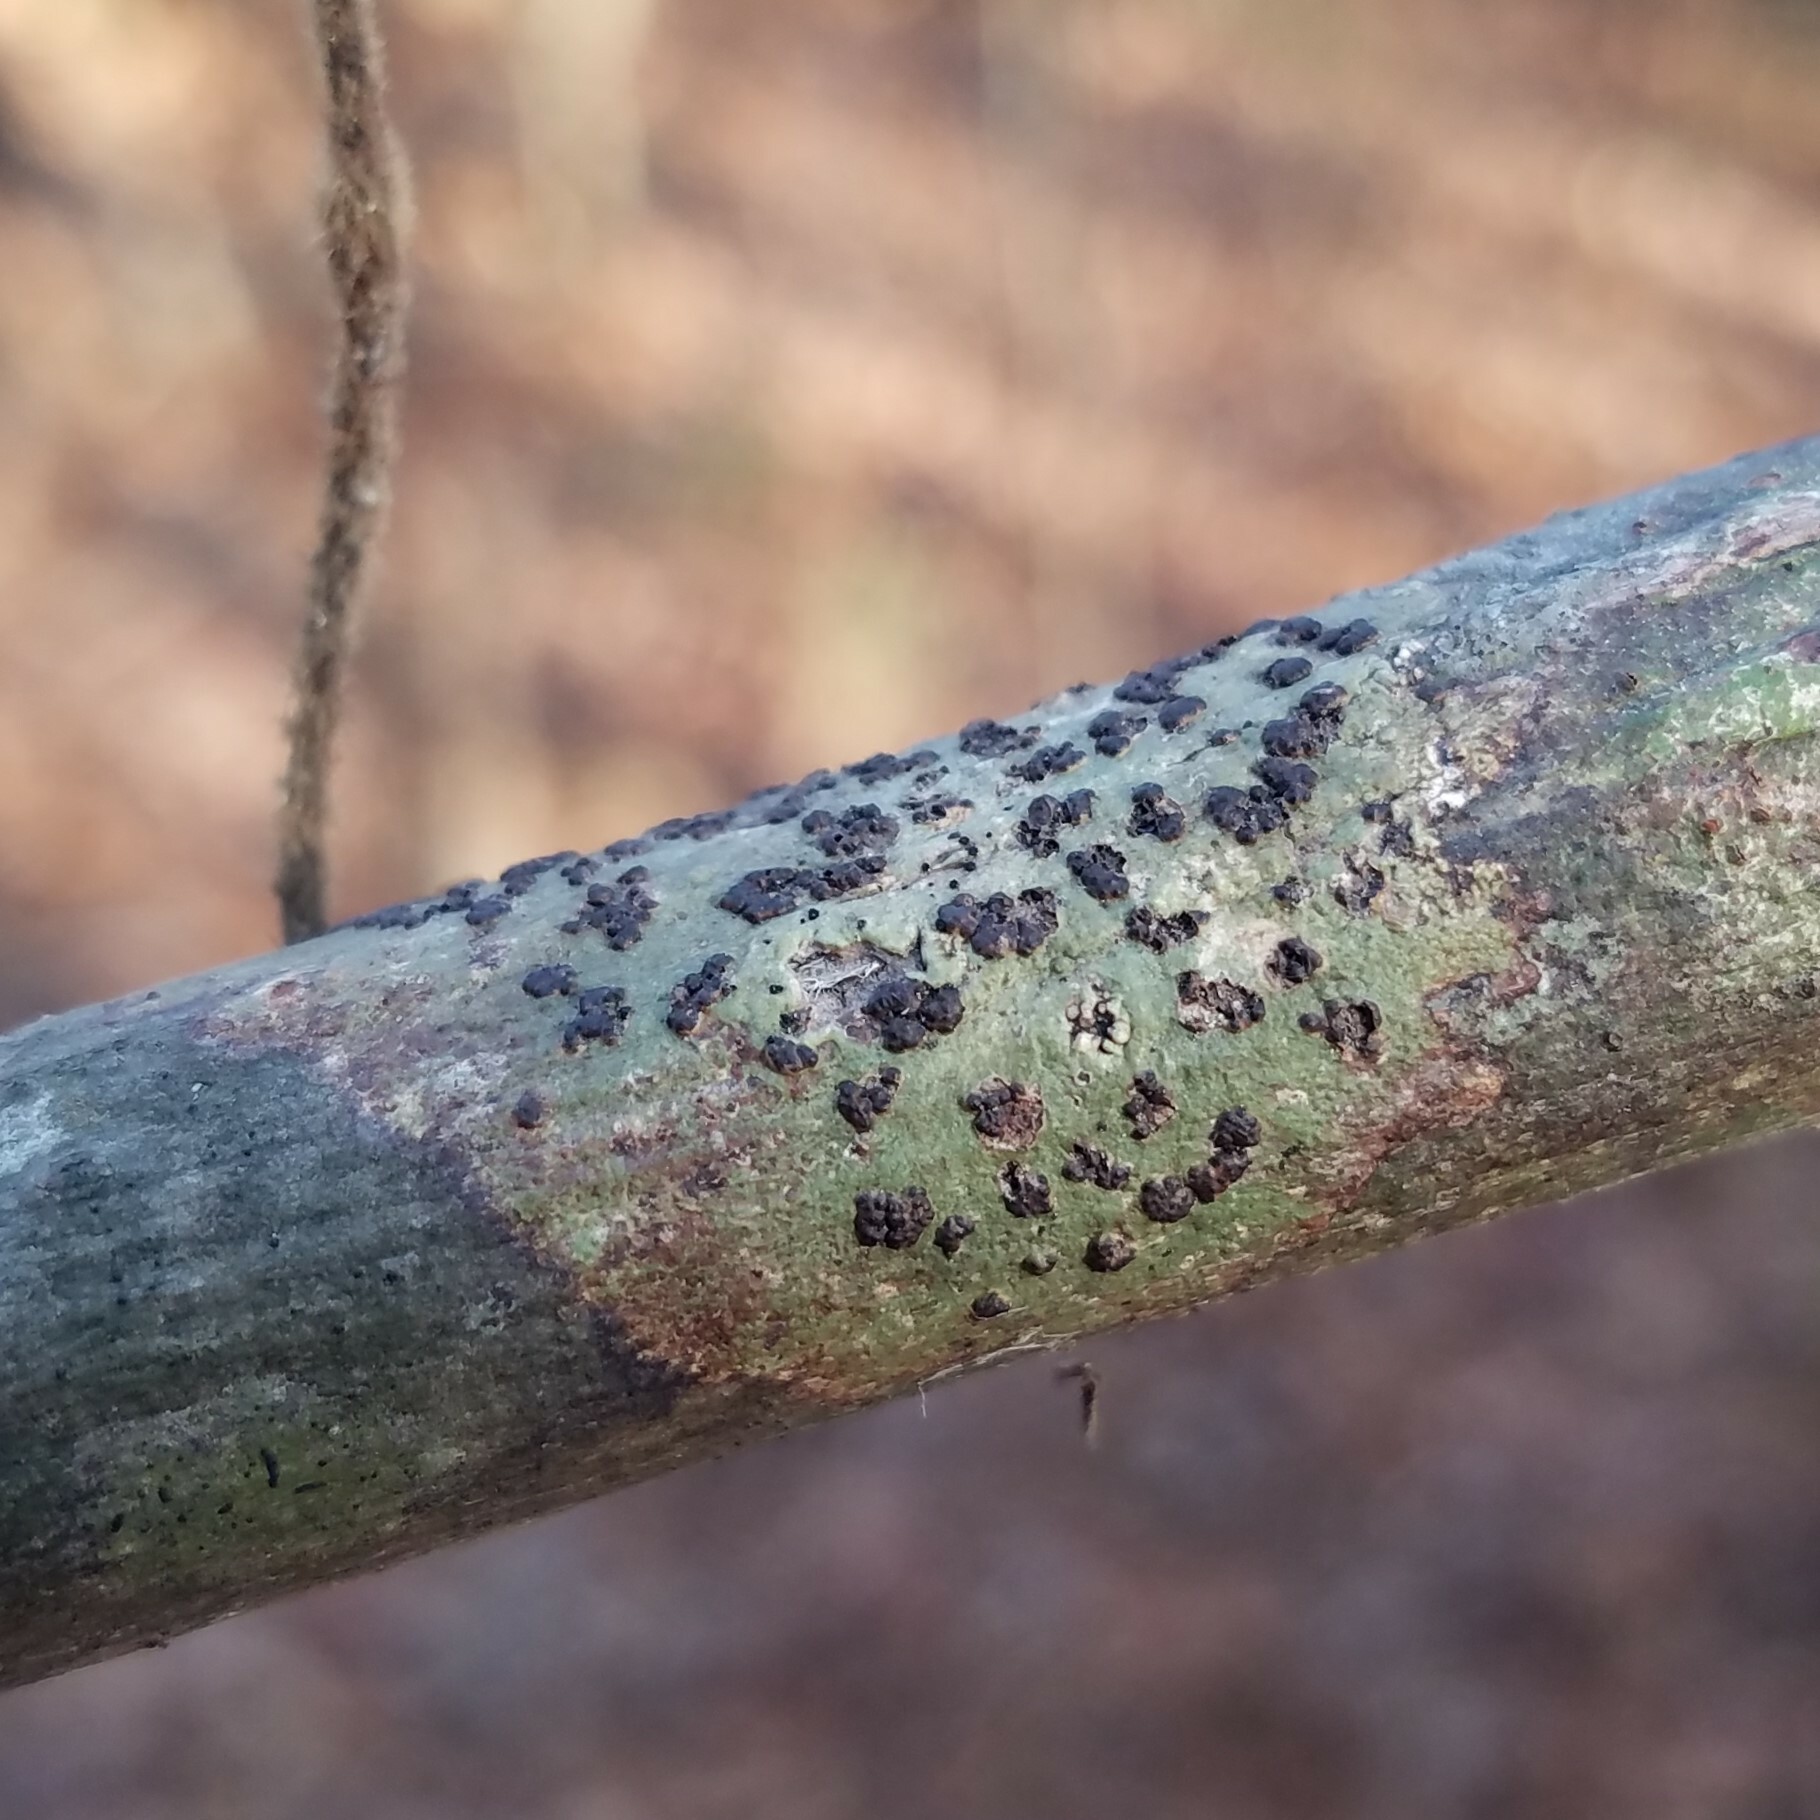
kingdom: Fungi
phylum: Ascomycota
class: Dothideomycetes
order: Trypetheliales
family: Trypetheliaceae
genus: Bathelium
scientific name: Bathelium carolinianum
